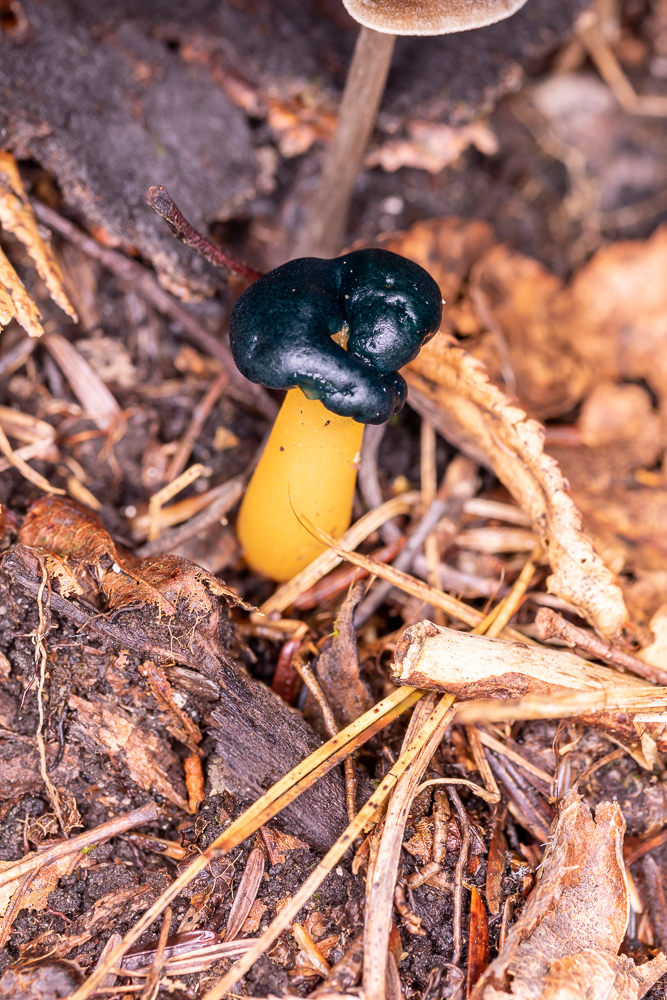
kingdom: Fungi
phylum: Ascomycota
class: Leotiomycetes
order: Leotiales
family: Leotiaceae
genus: Leotia
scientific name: Leotia lubrica
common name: Jellybaby
